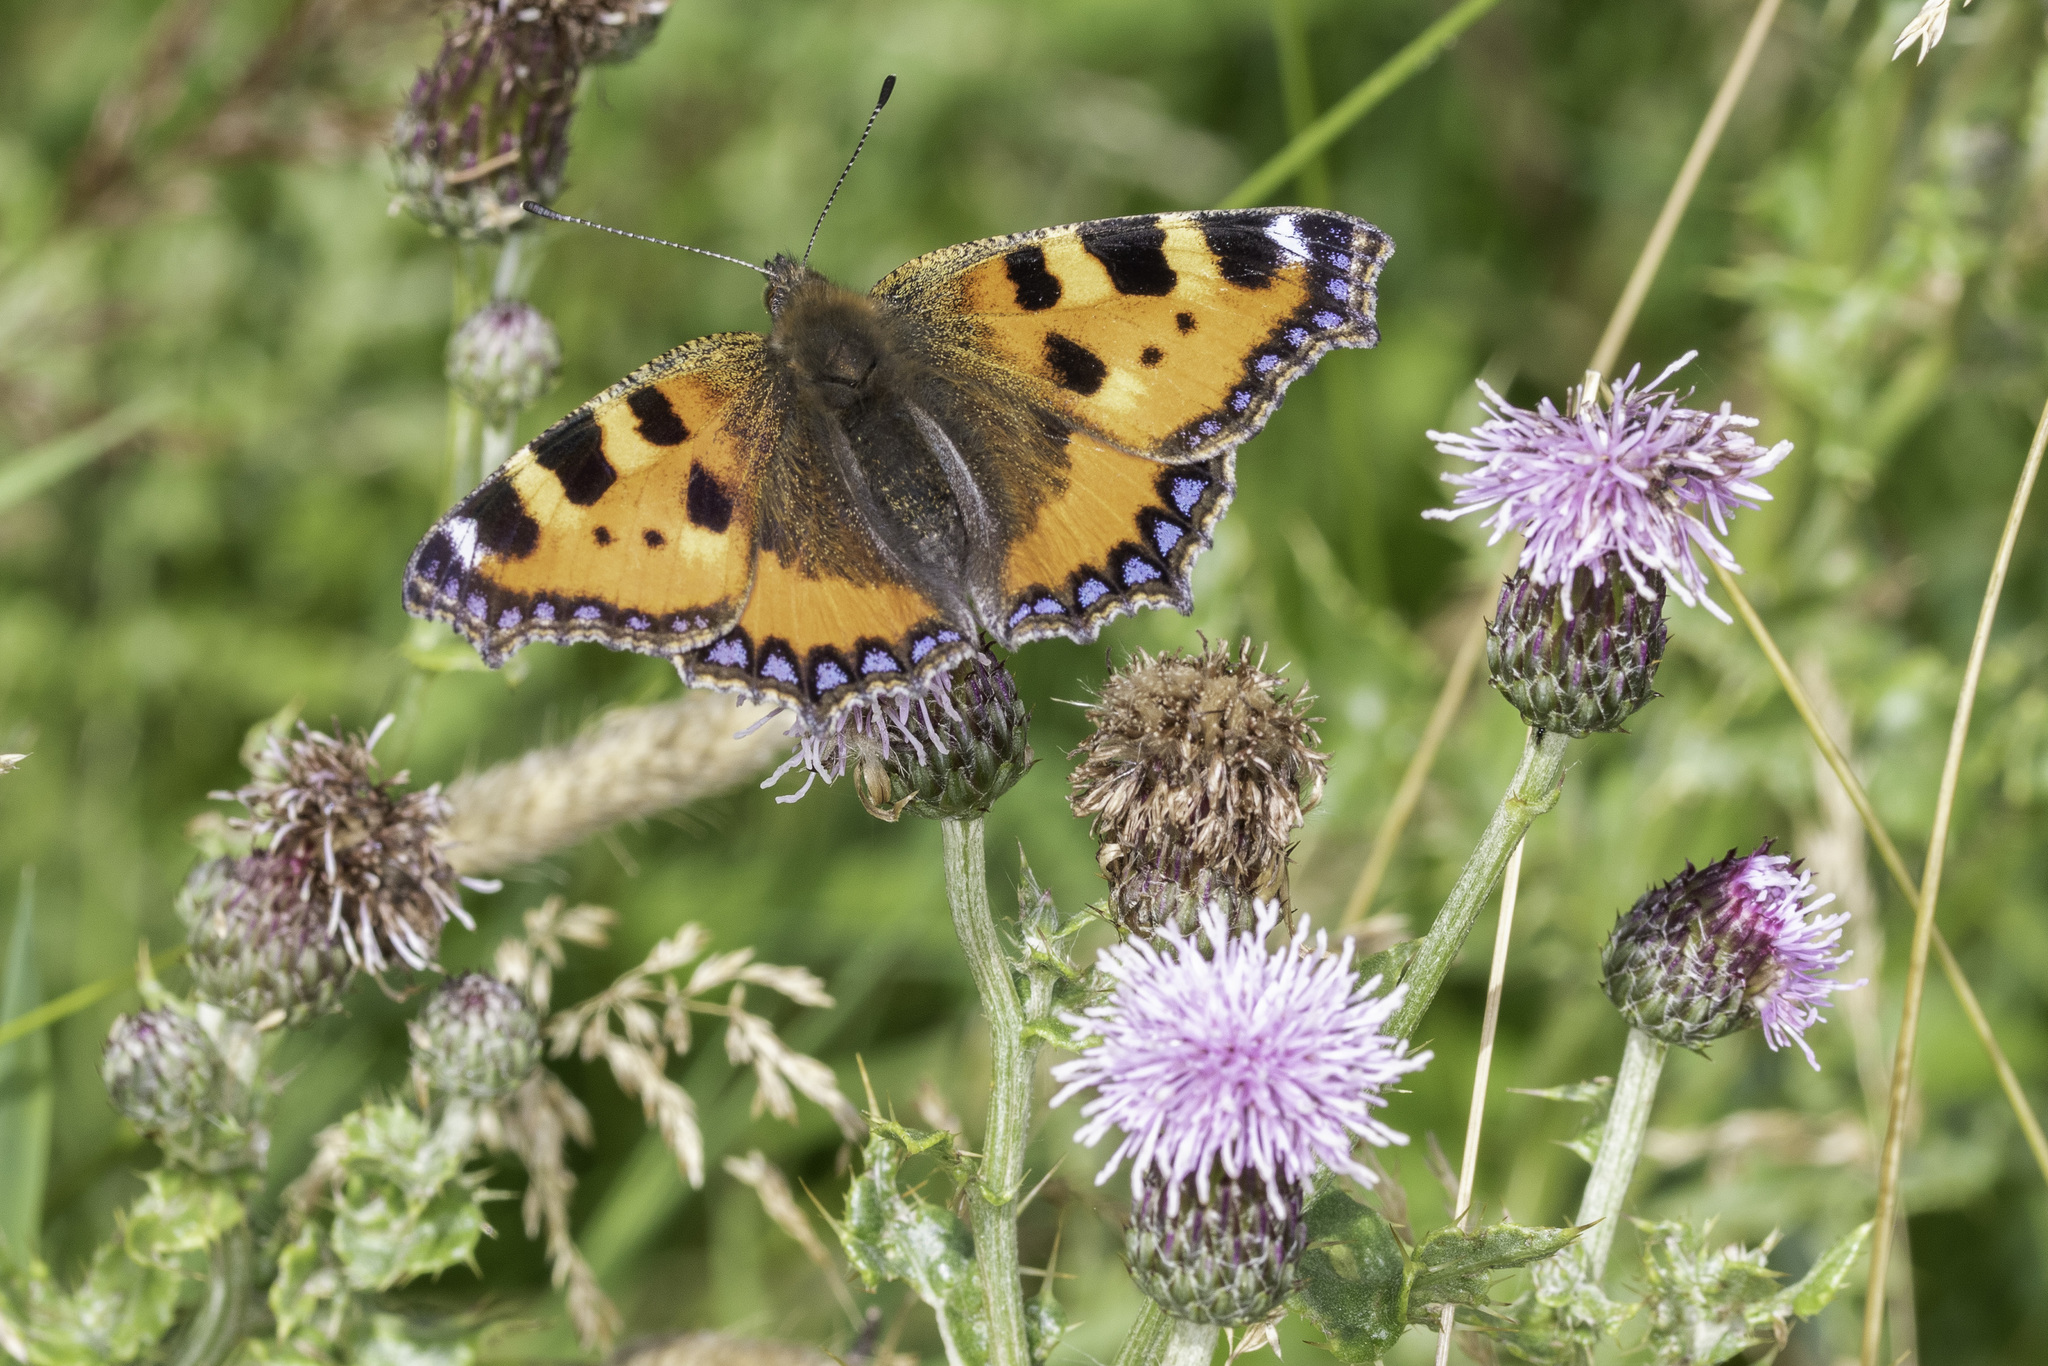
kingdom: Animalia
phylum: Arthropoda
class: Insecta
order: Lepidoptera
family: Nymphalidae
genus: Aglais
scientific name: Aglais urticae
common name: Small tortoiseshell
